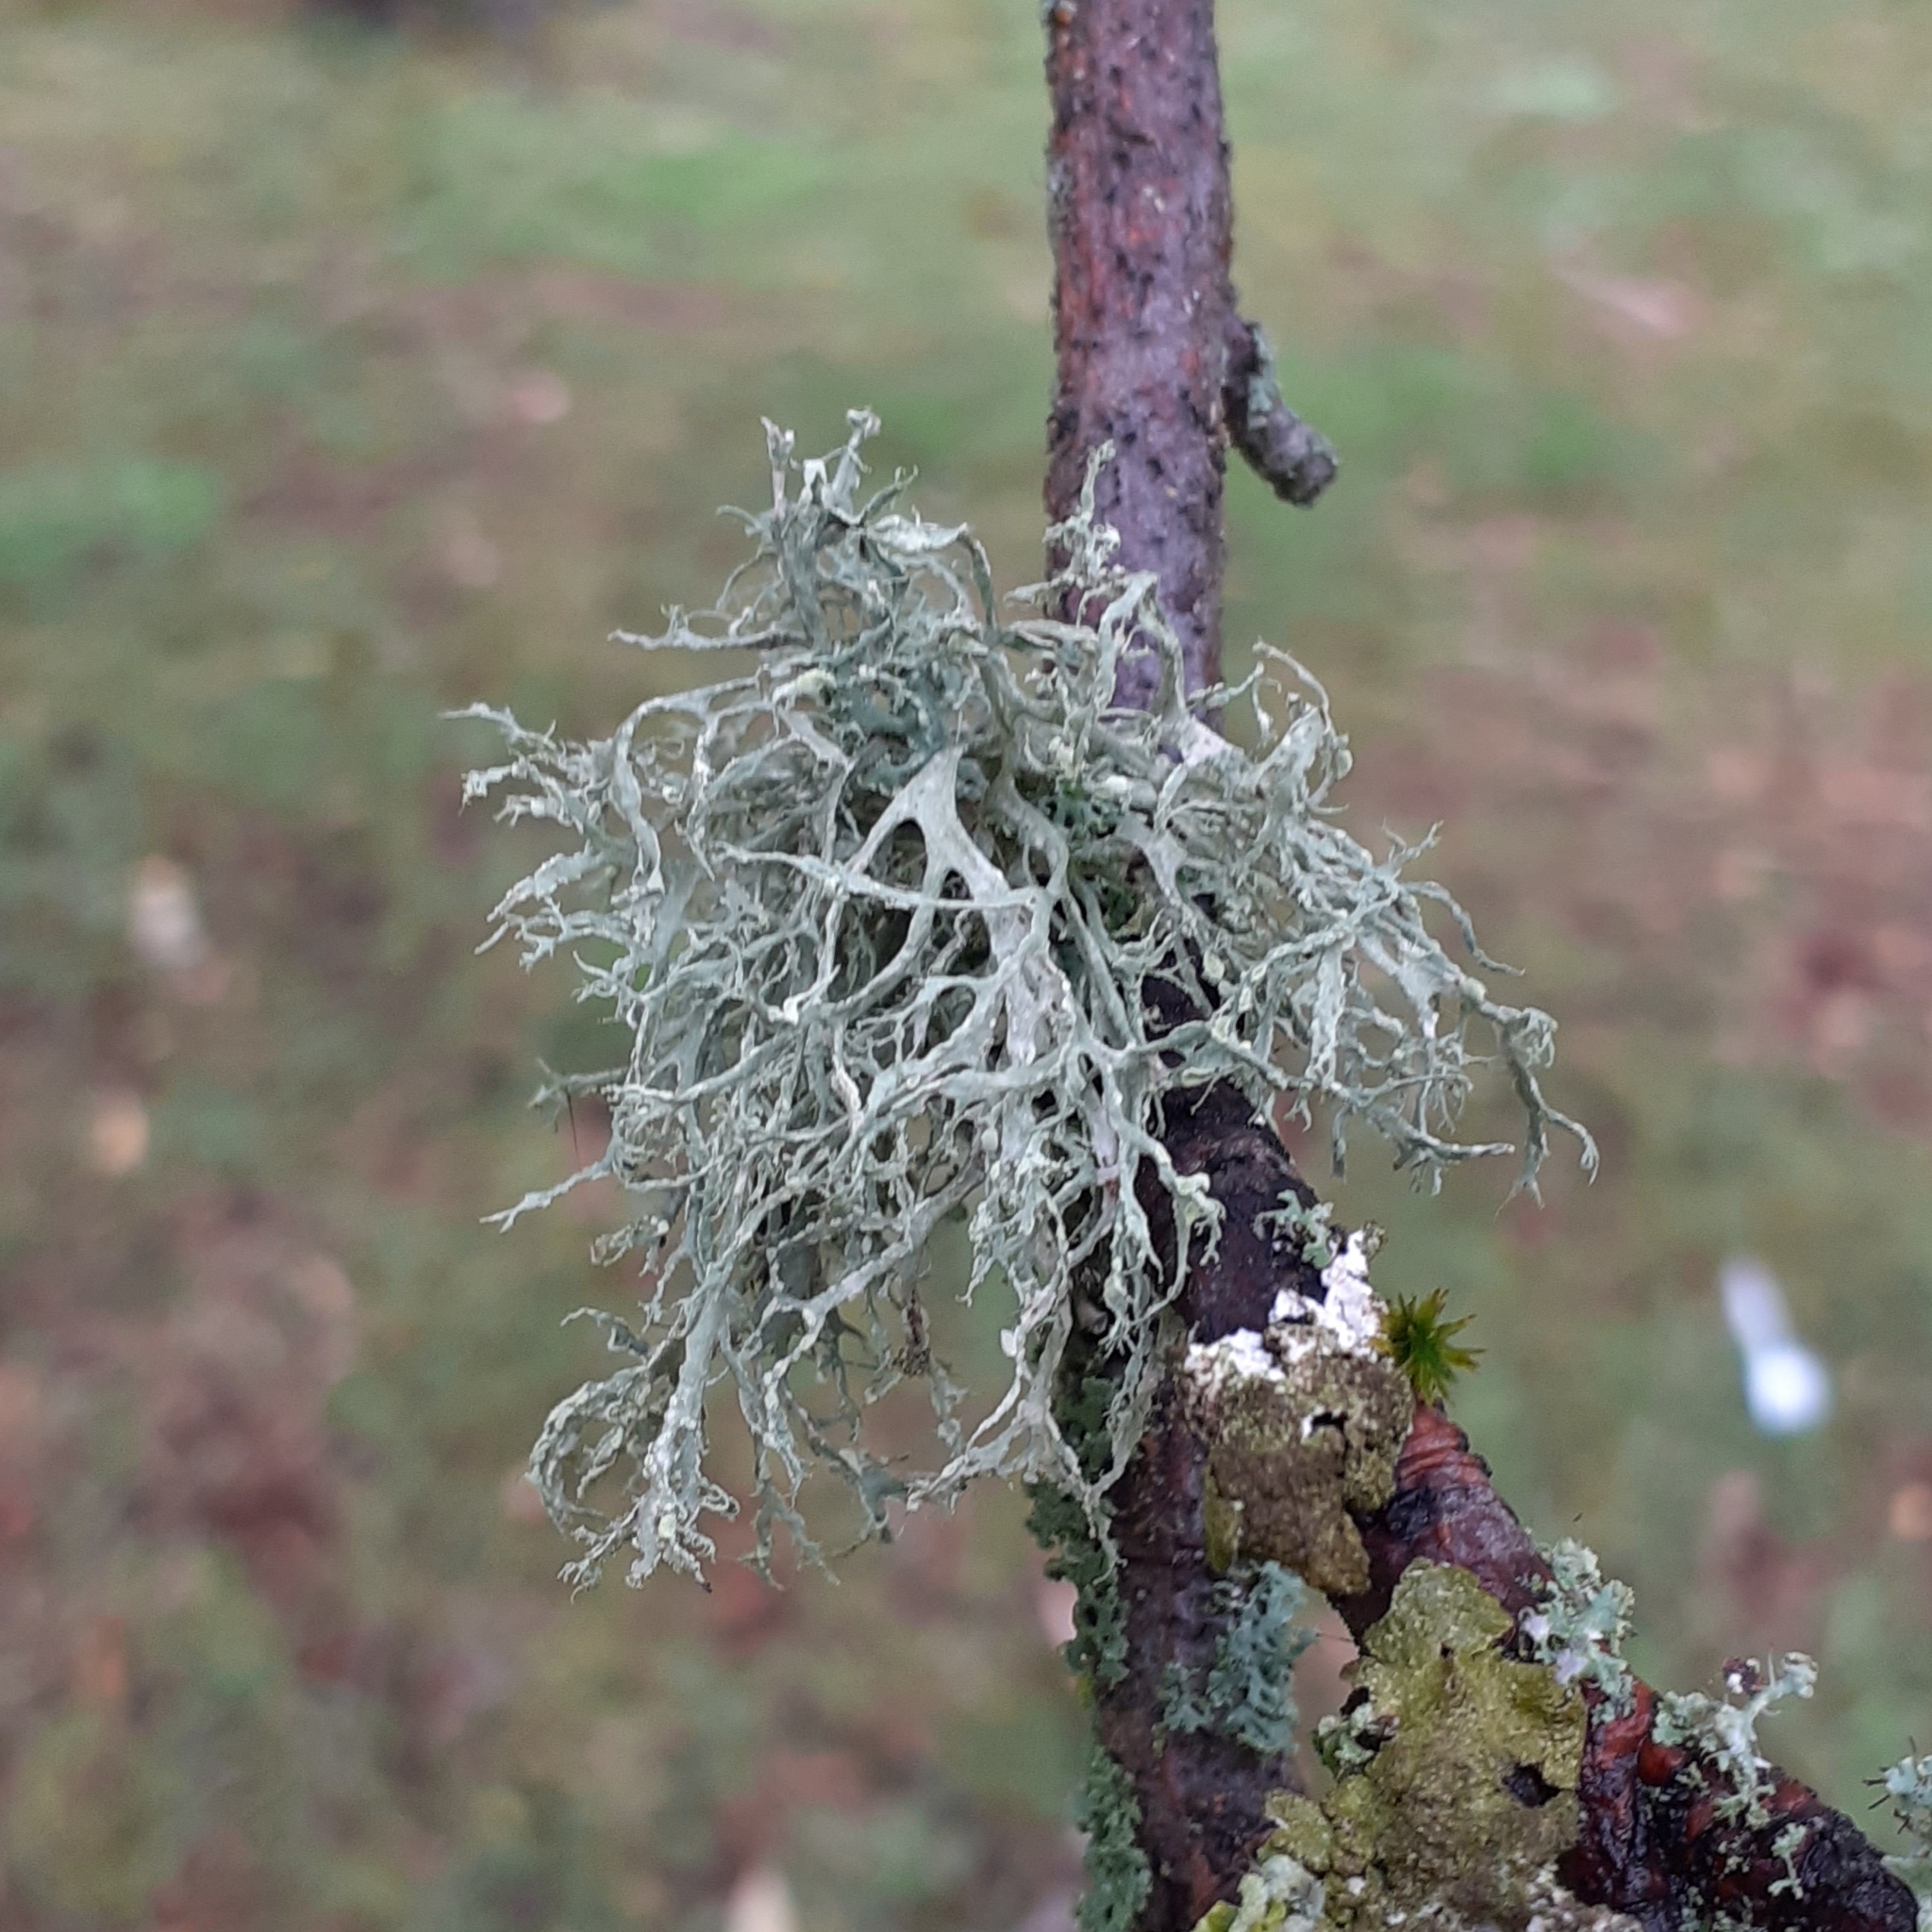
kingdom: Fungi
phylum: Ascomycota
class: Lecanoromycetes
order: Lecanorales
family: Ramalinaceae
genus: Ramalina
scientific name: Ramalina farinacea
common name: Farinose cartilage lichen
